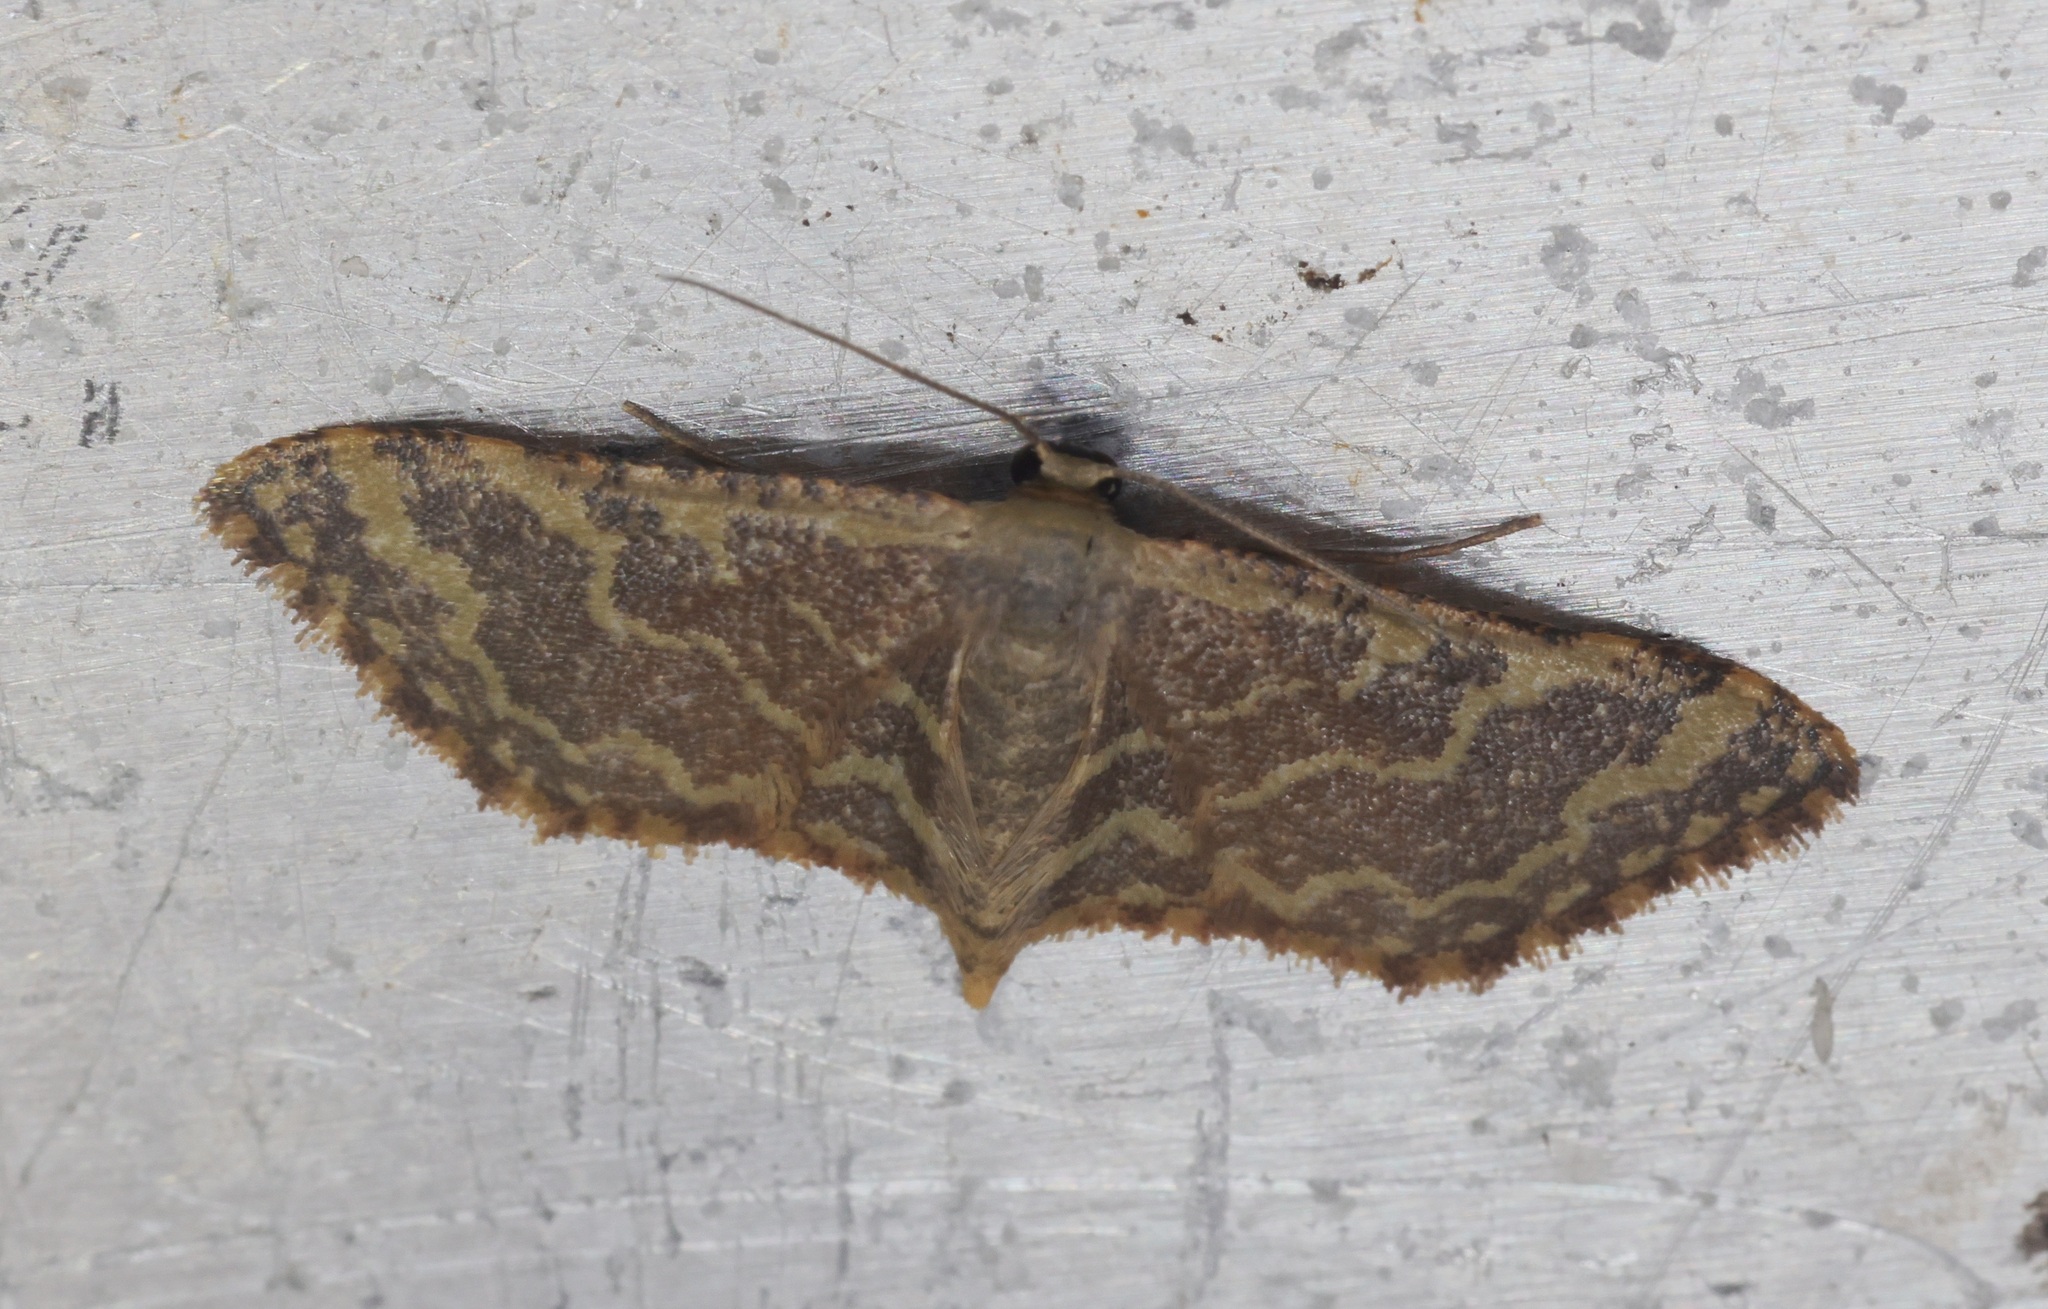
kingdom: Animalia
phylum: Arthropoda
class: Insecta
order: Lepidoptera
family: Geometridae
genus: Lophophleps
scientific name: Lophophleps purpurea
